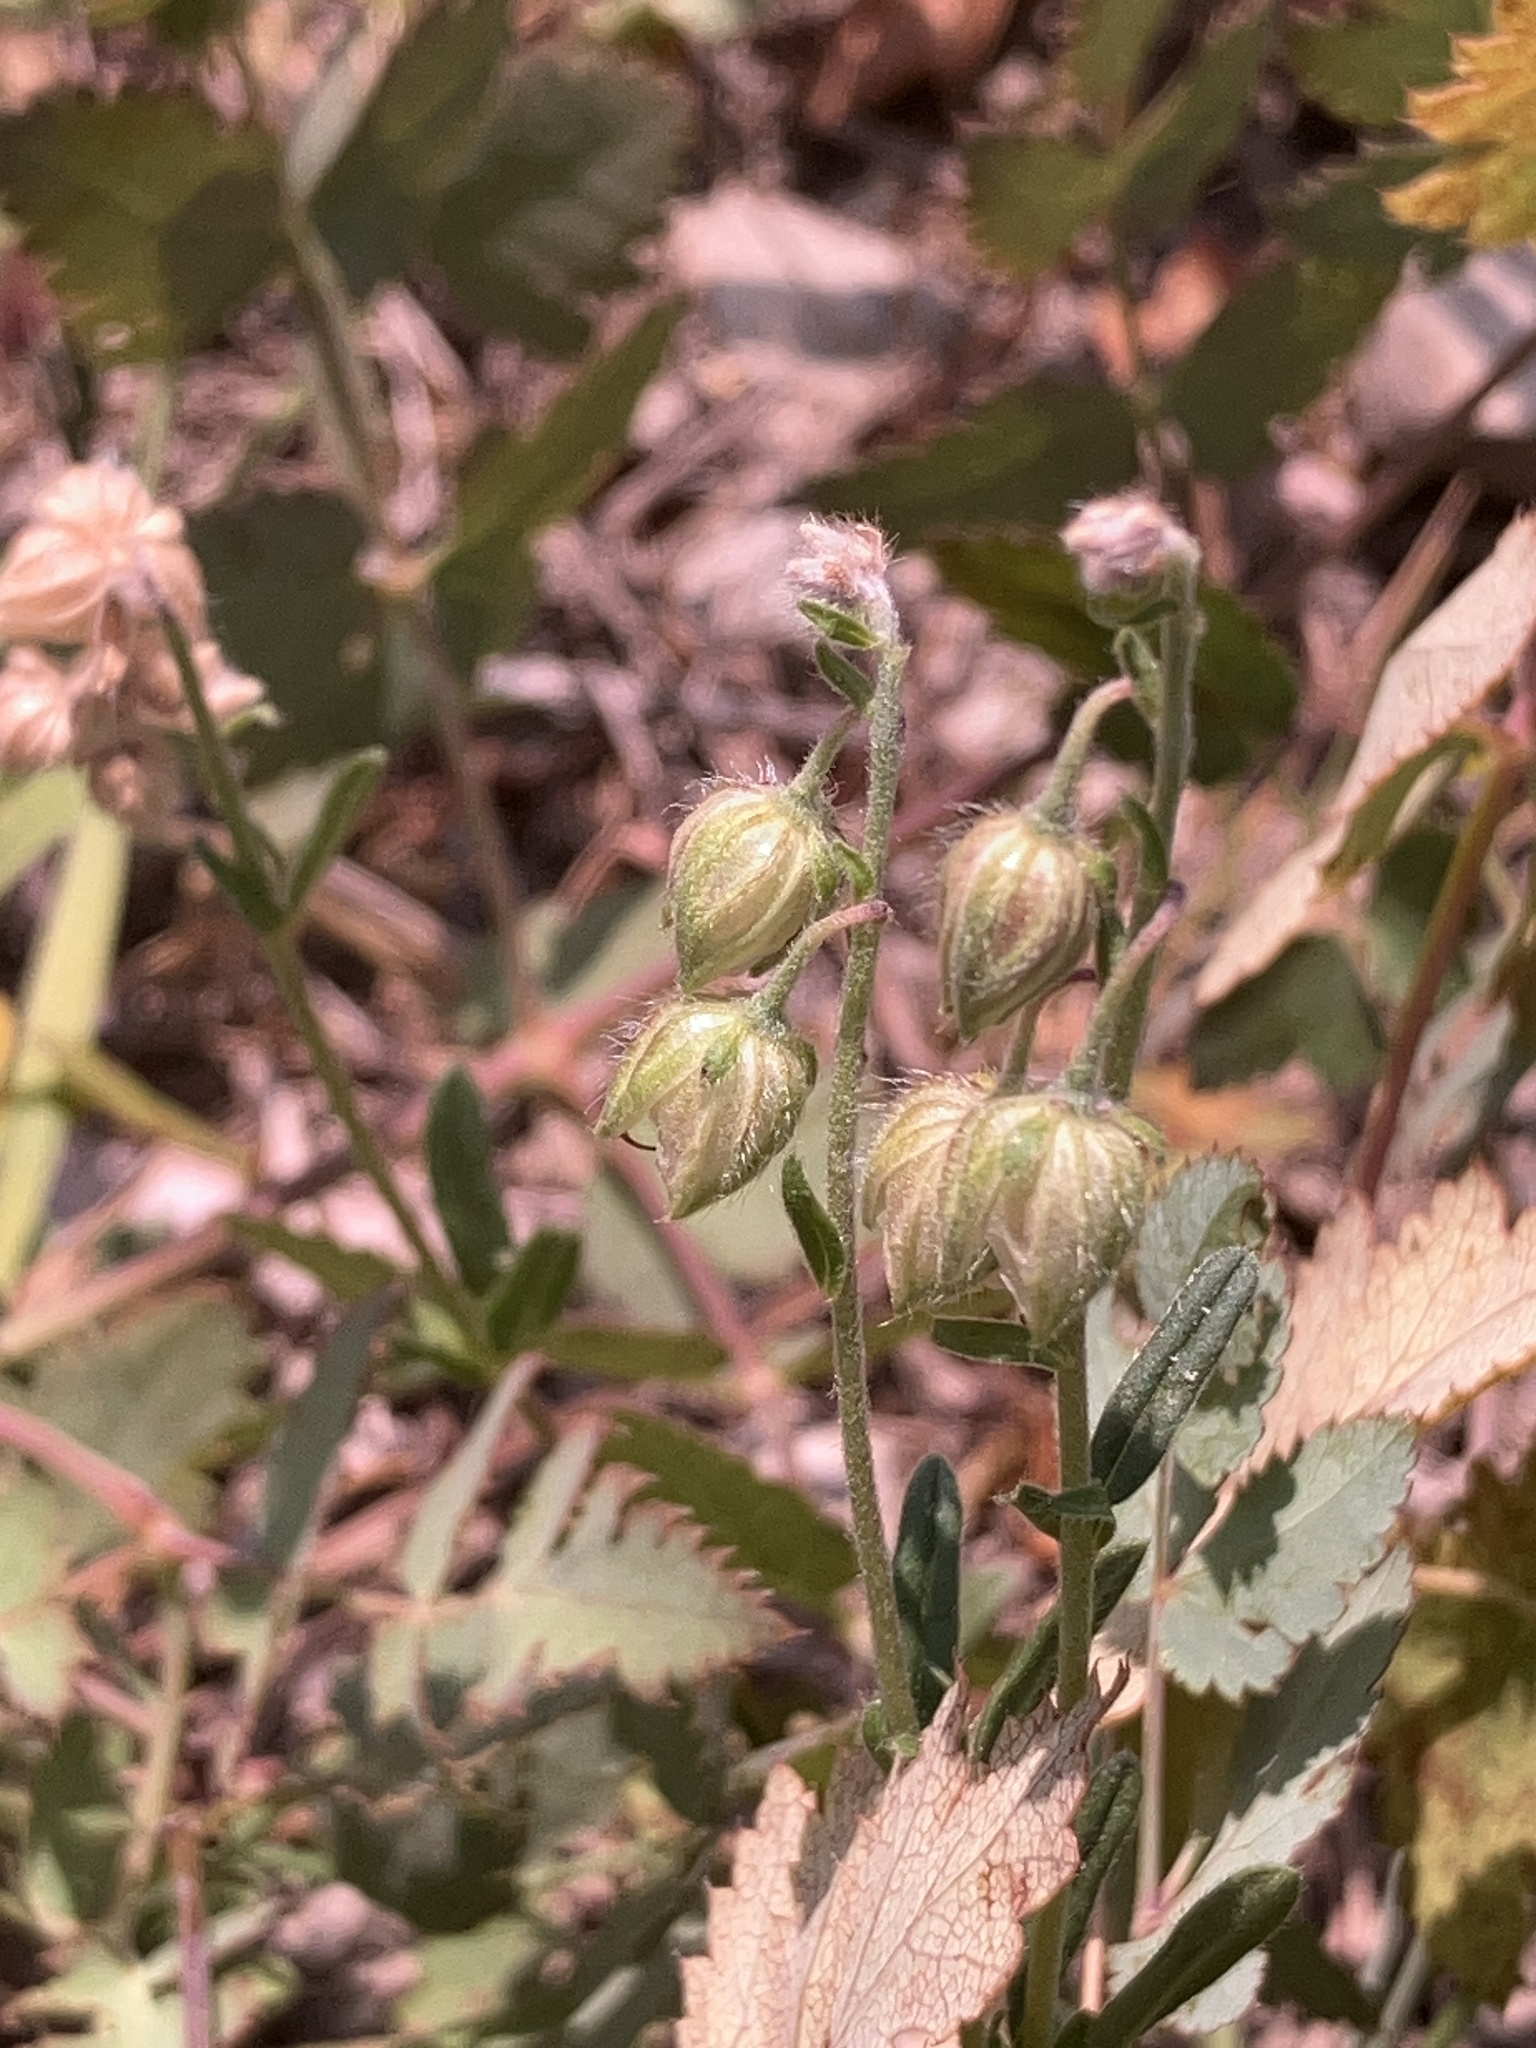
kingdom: Plantae
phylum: Tracheophyta
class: Magnoliopsida
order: Malvales
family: Cistaceae
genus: Helianthemum
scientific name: Helianthemum nummularium
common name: Common rock-rose
